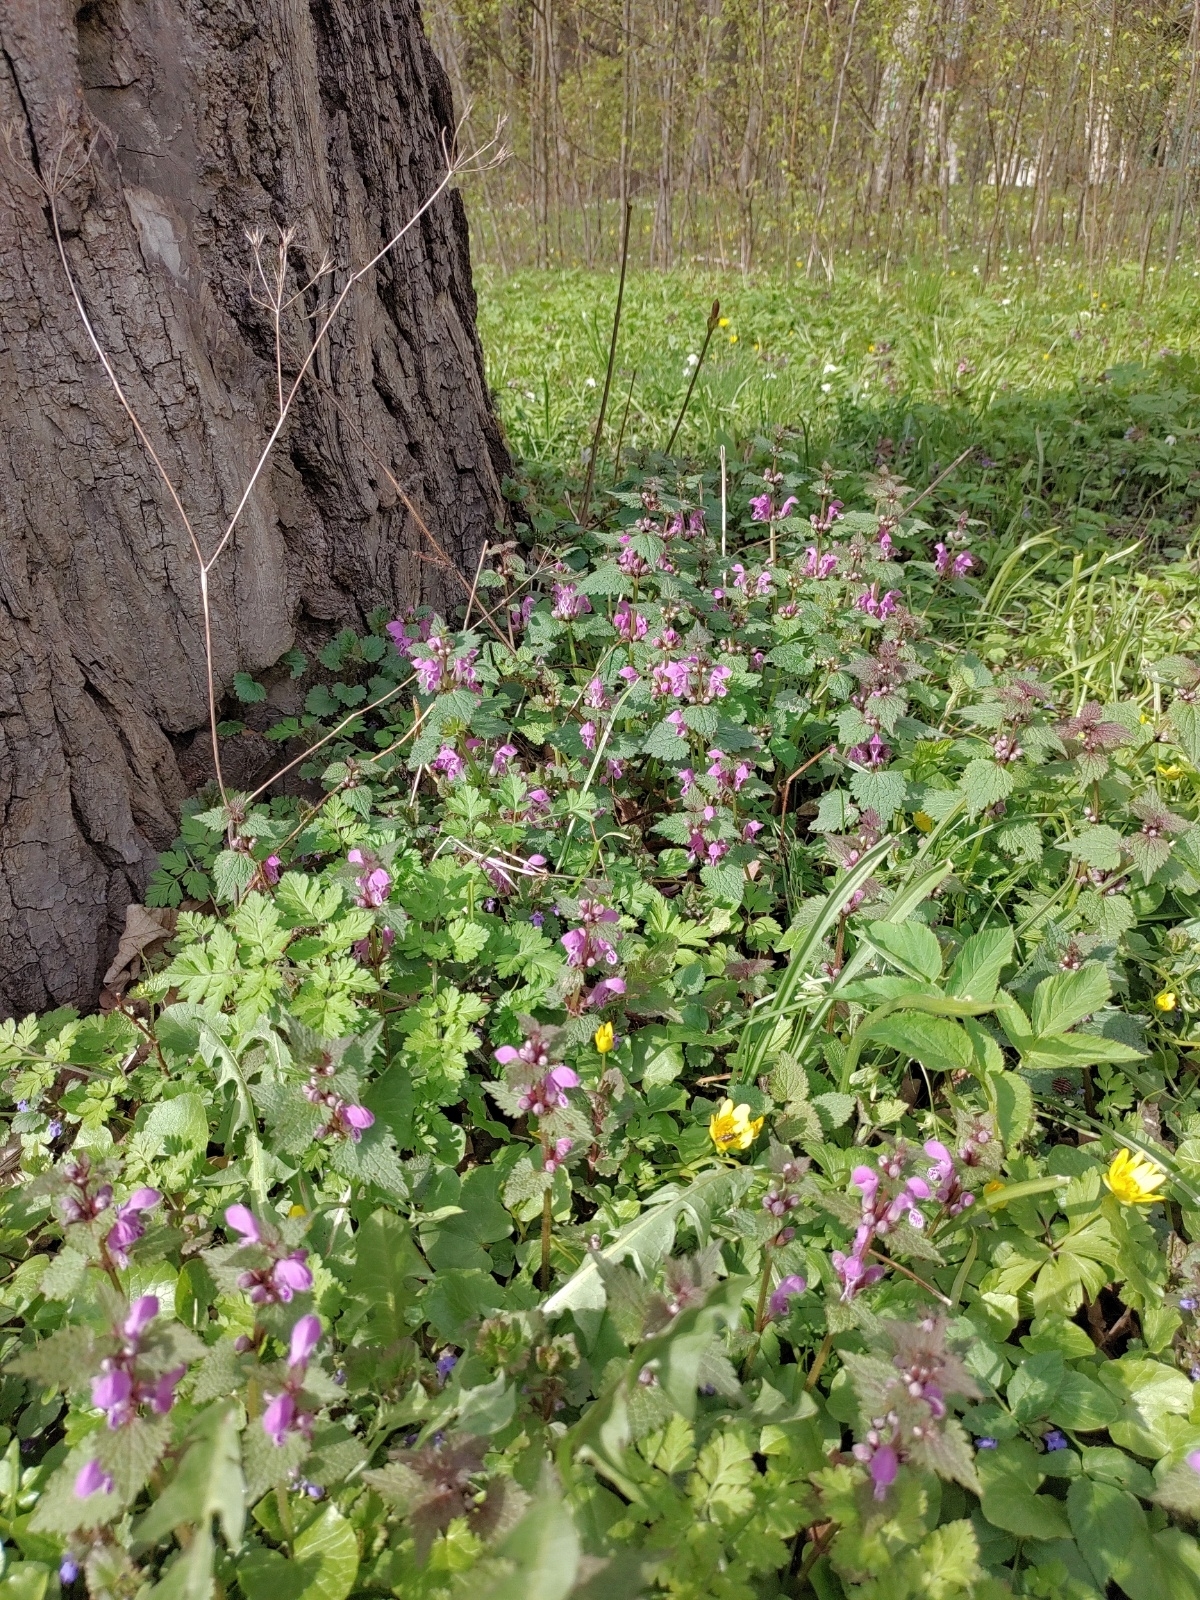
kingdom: Plantae
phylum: Tracheophyta
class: Magnoliopsida
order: Lamiales
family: Lamiaceae
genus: Lamium
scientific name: Lamium maculatum
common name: Spotted dead-nettle
